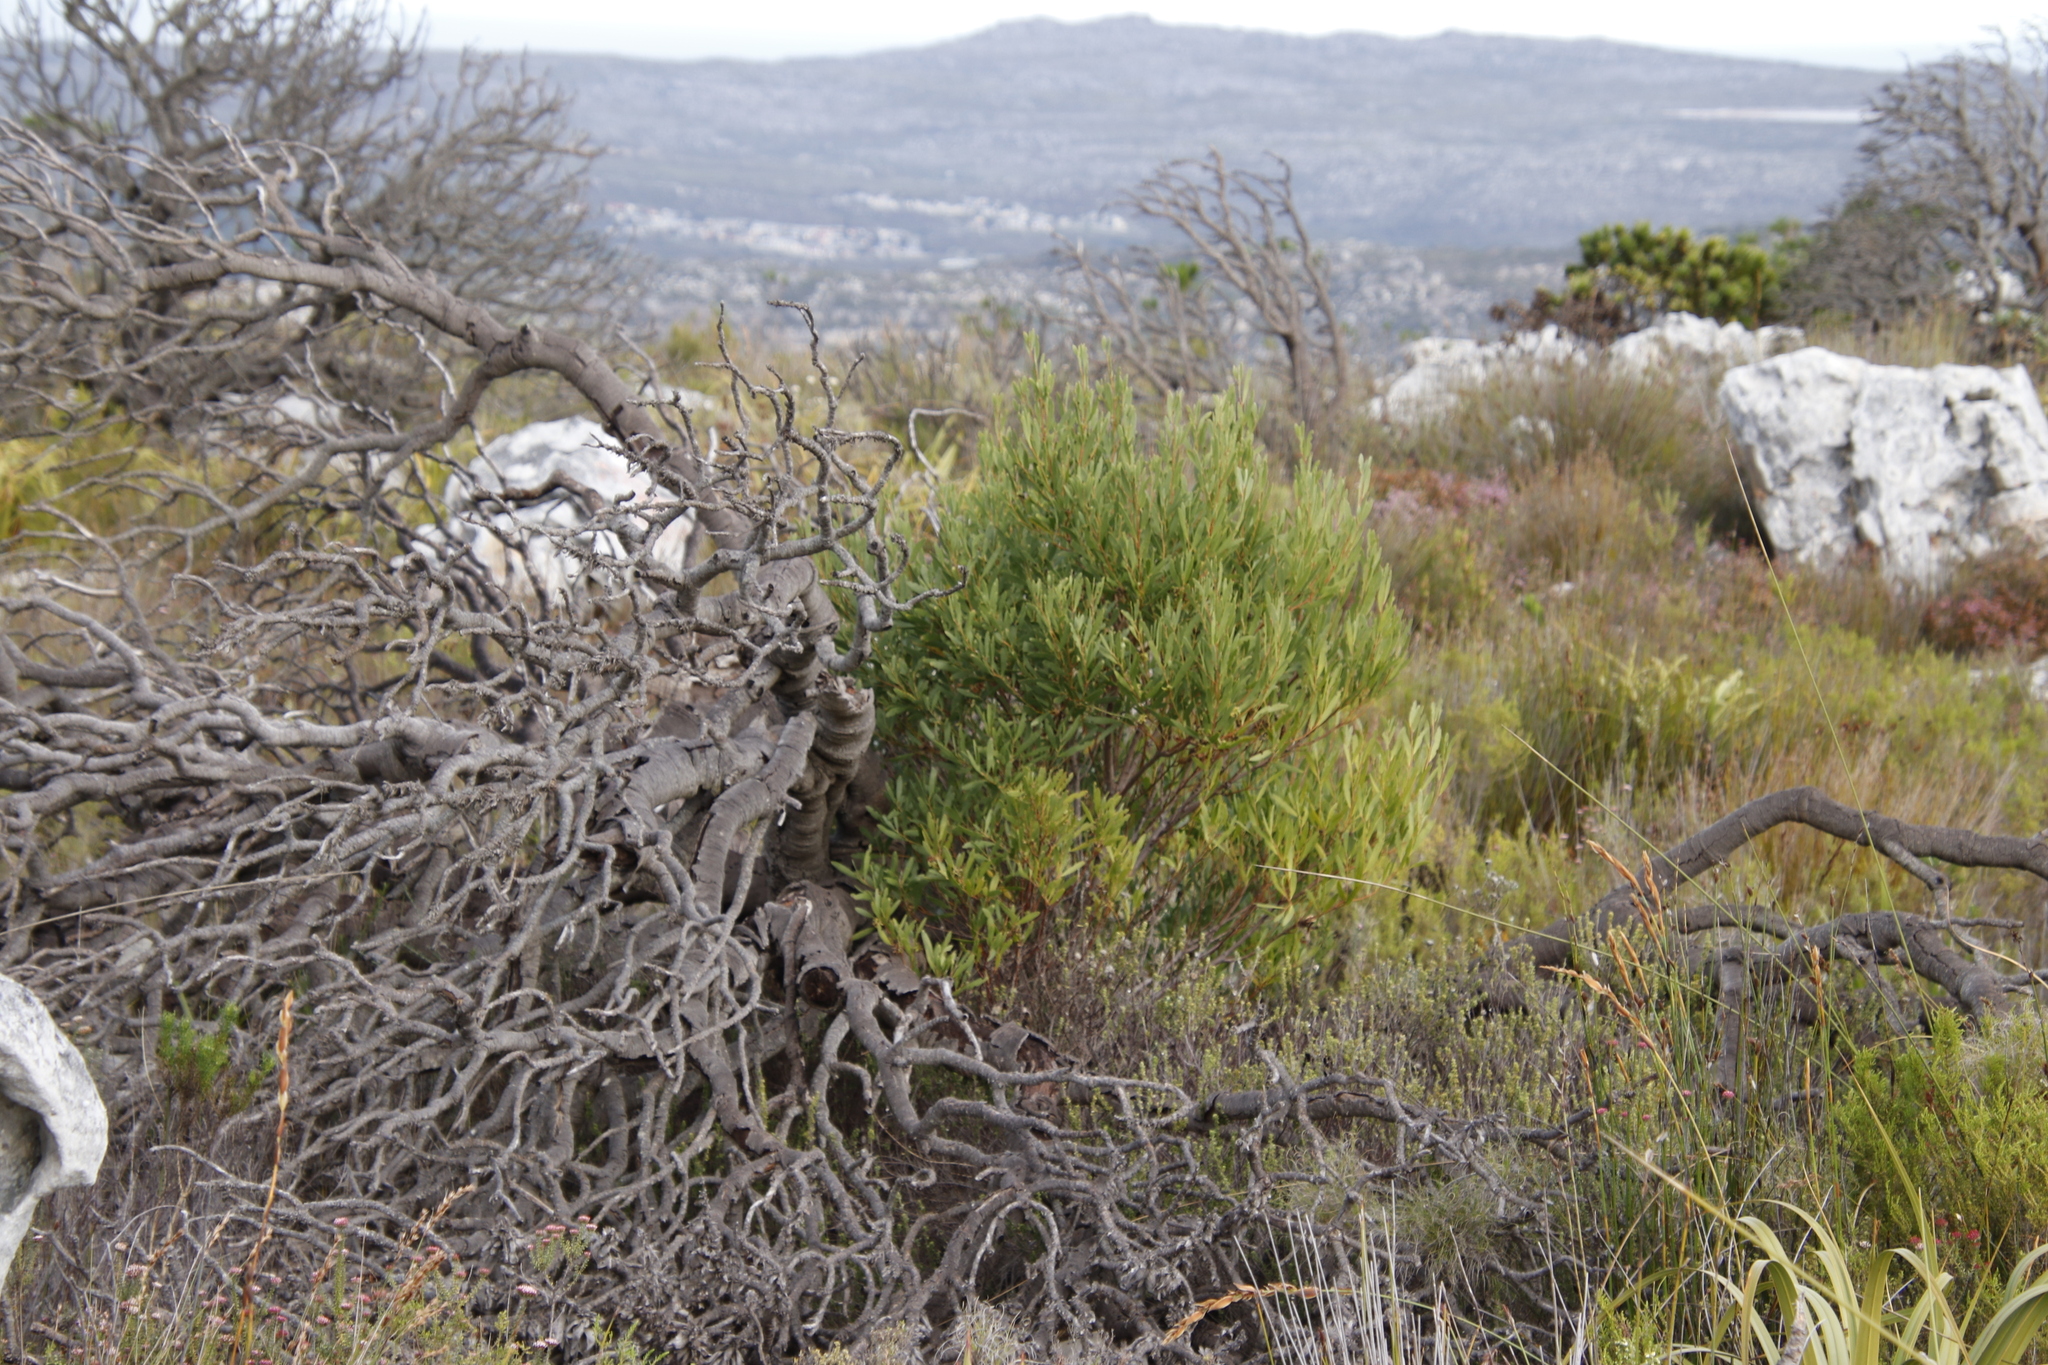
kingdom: Plantae
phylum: Tracheophyta
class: Magnoliopsida
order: Fabales
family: Fabaceae
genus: Acacia
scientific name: Acacia cyclops
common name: Coastal wattle
